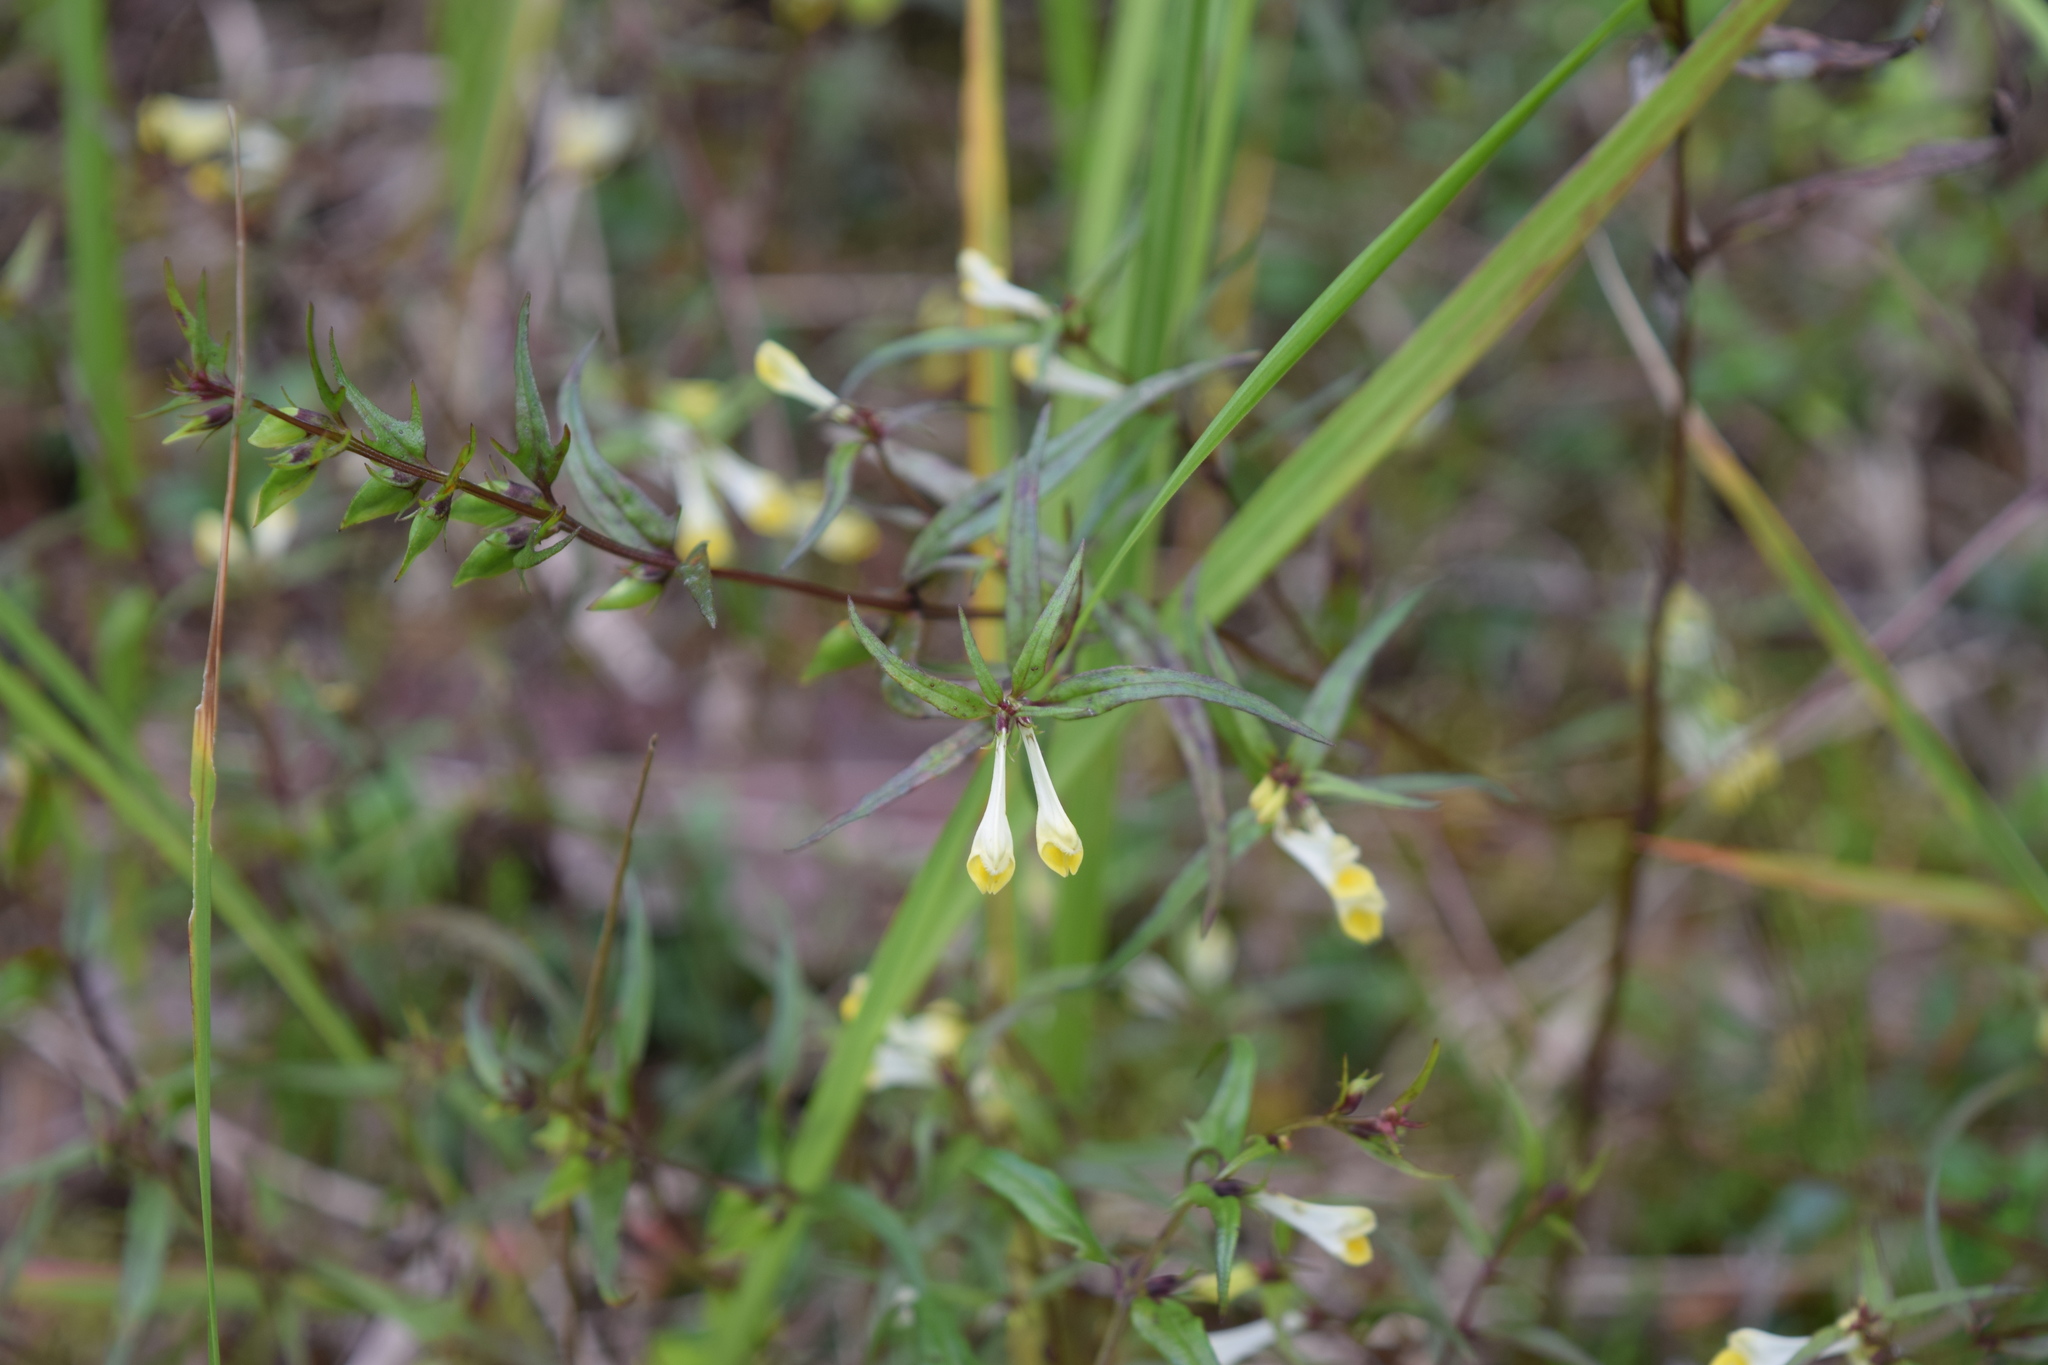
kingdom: Plantae
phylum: Tracheophyta
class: Magnoliopsida
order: Lamiales
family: Orobanchaceae
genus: Melampyrum
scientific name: Melampyrum pratense
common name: Common cow-wheat
